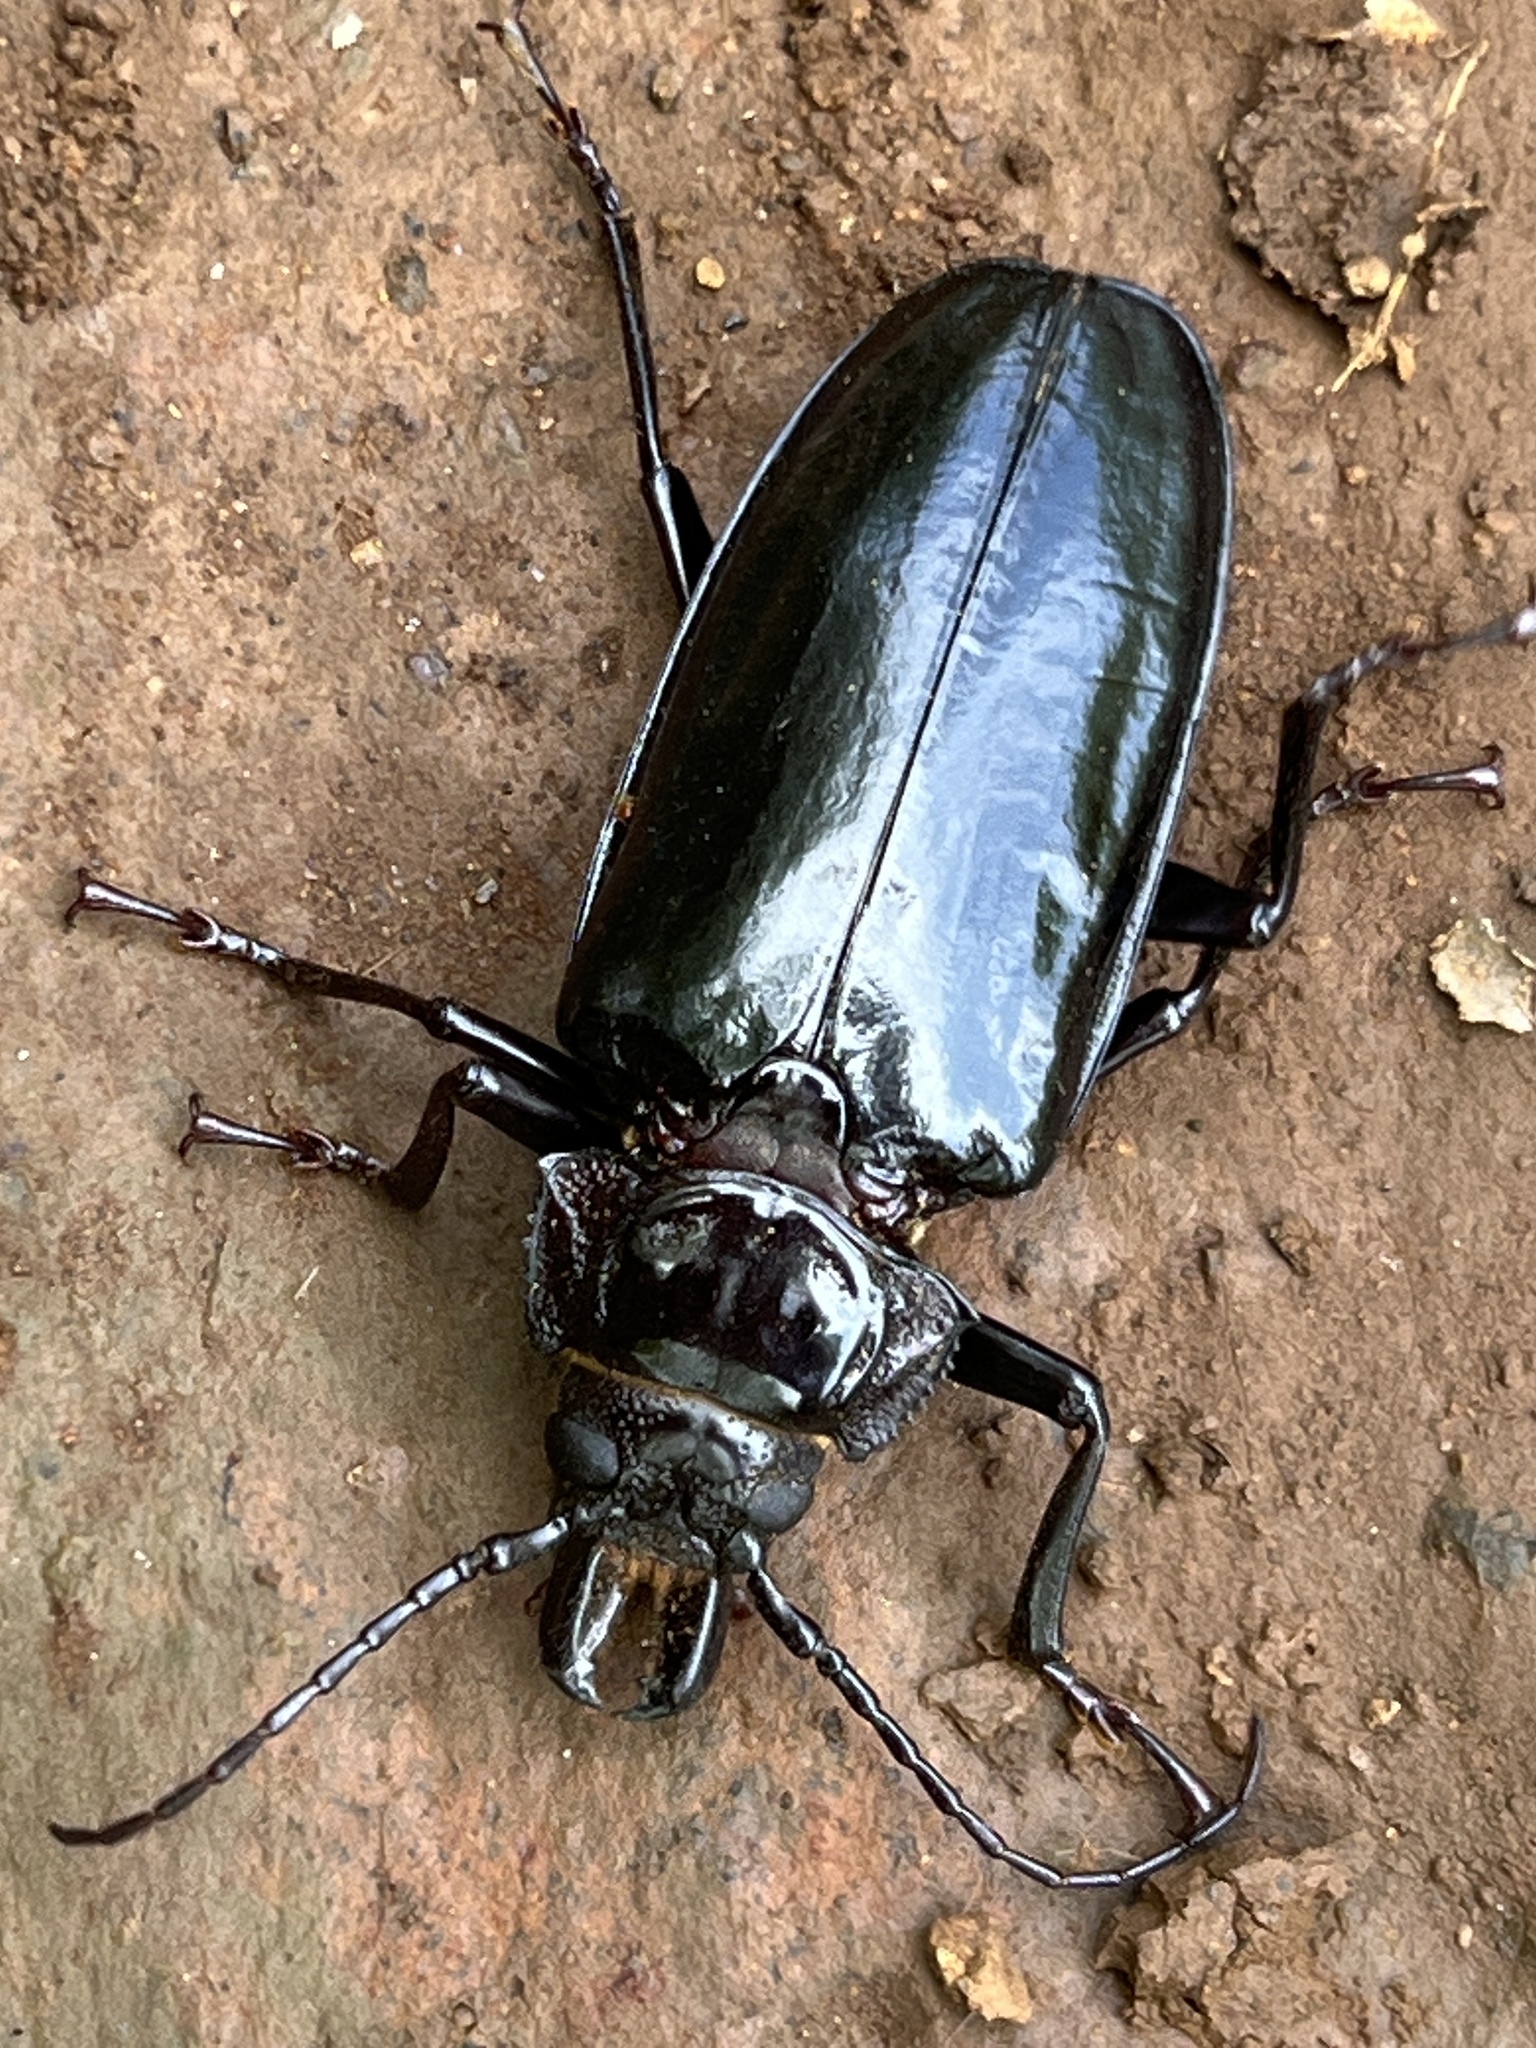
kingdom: Animalia
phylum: Arthropoda
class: Insecta
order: Coleoptera
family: Cerambycidae
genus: Mallodon
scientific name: Mallodon downesii
